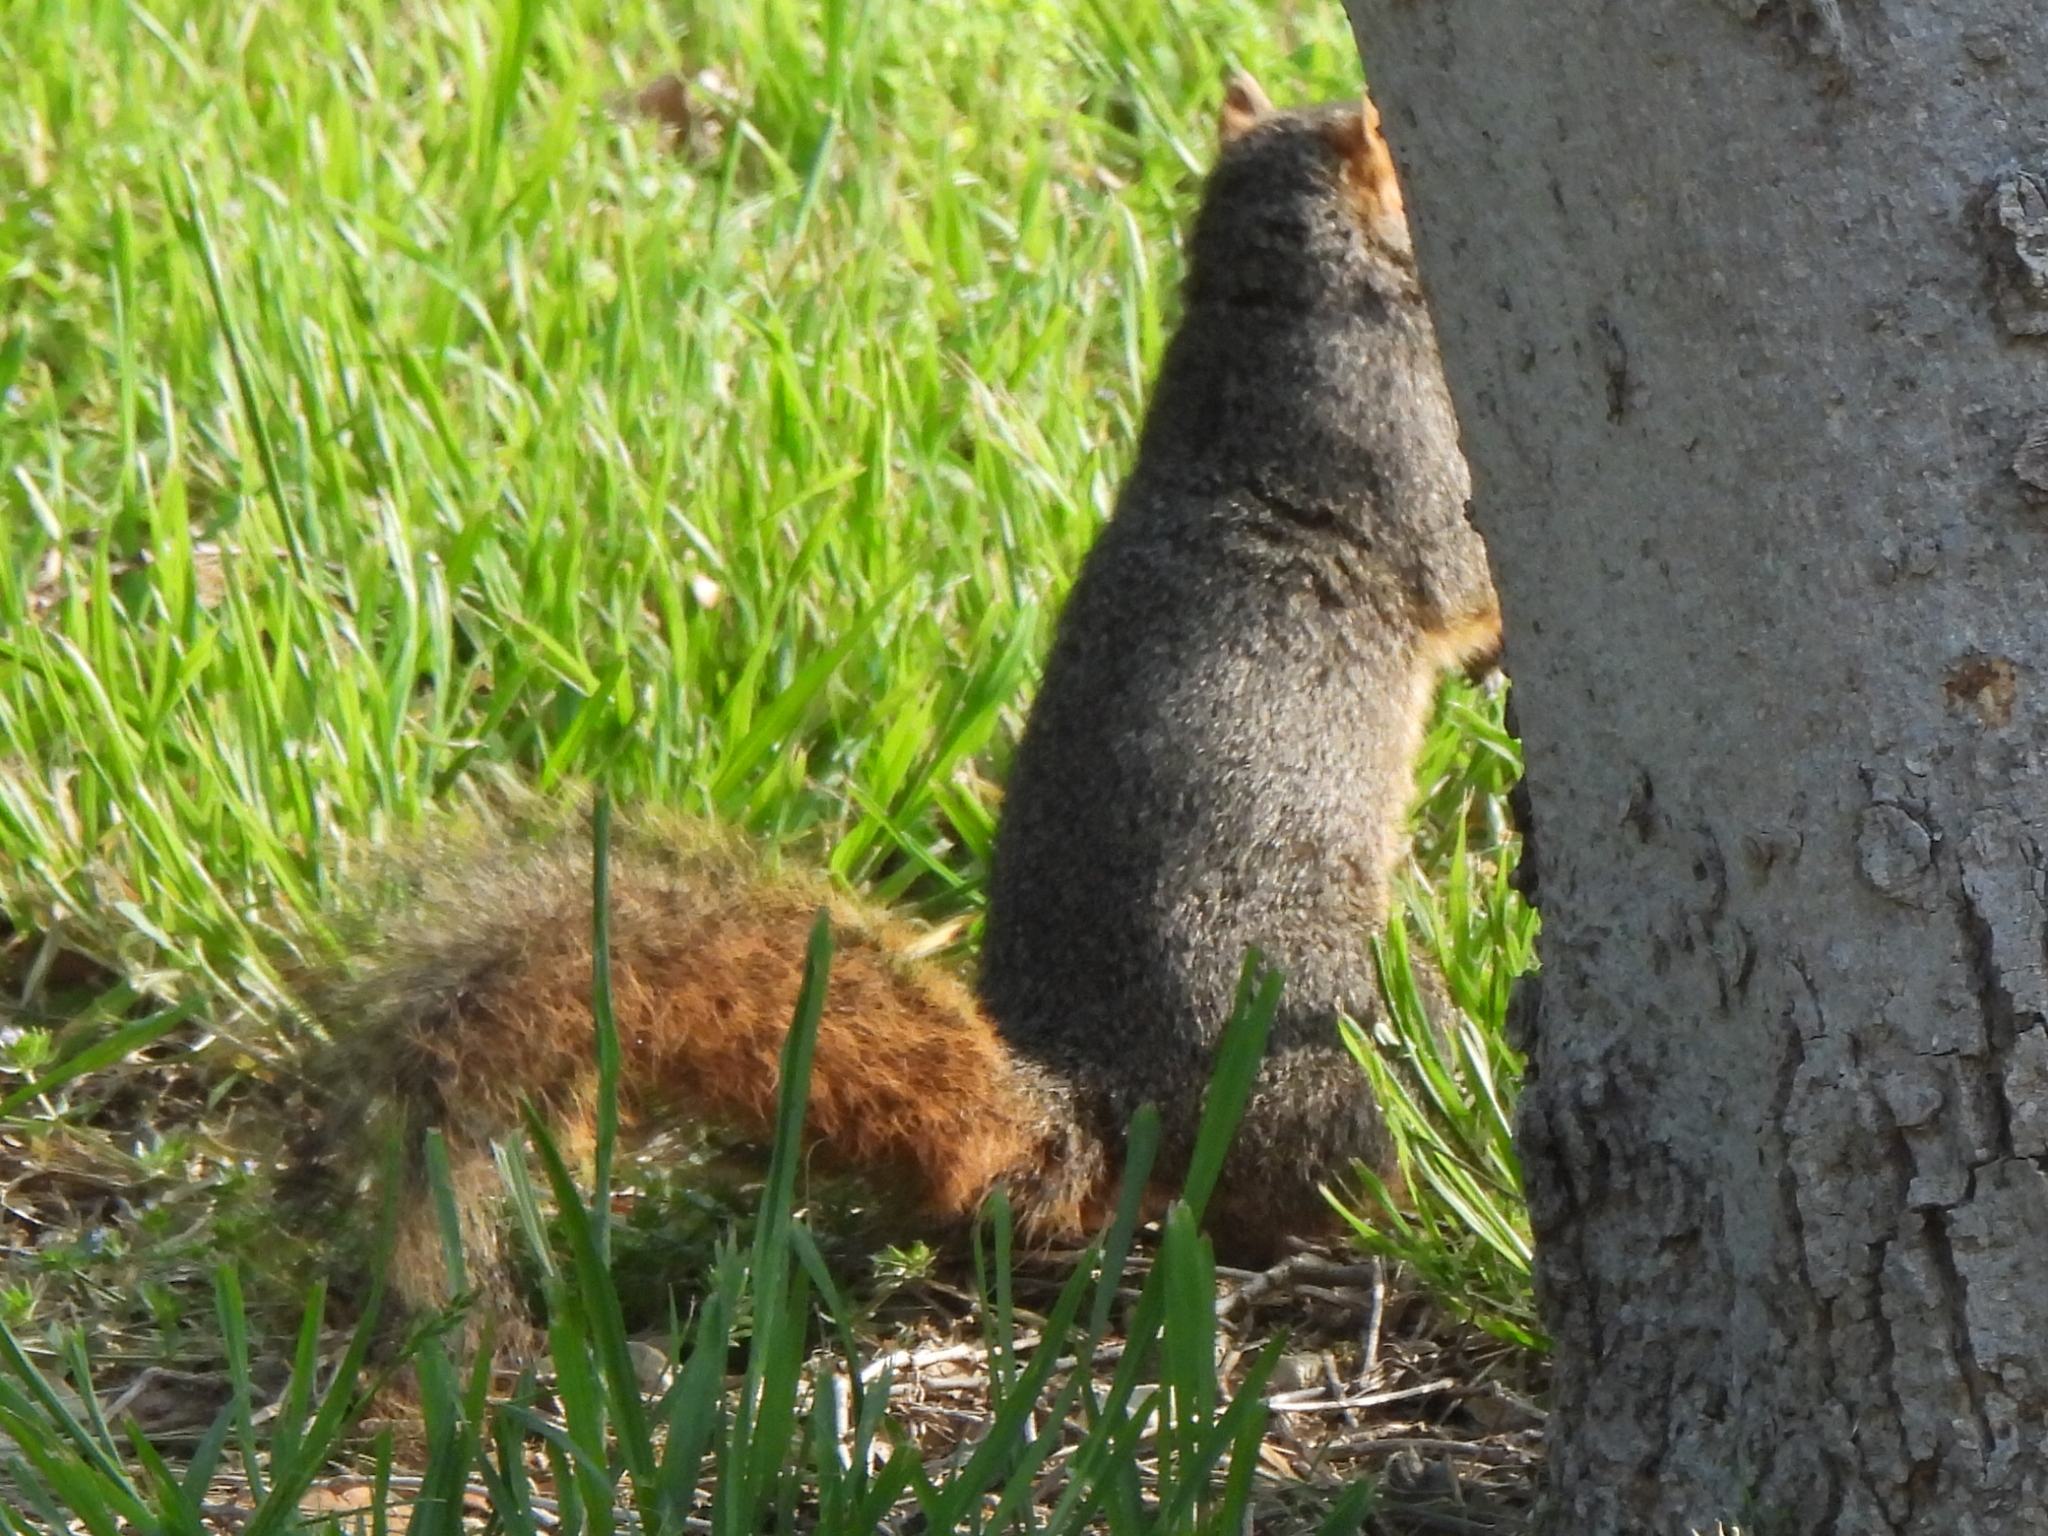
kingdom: Animalia
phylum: Chordata
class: Mammalia
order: Rodentia
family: Sciuridae
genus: Sciurus
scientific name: Sciurus niger
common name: Fox squirrel
